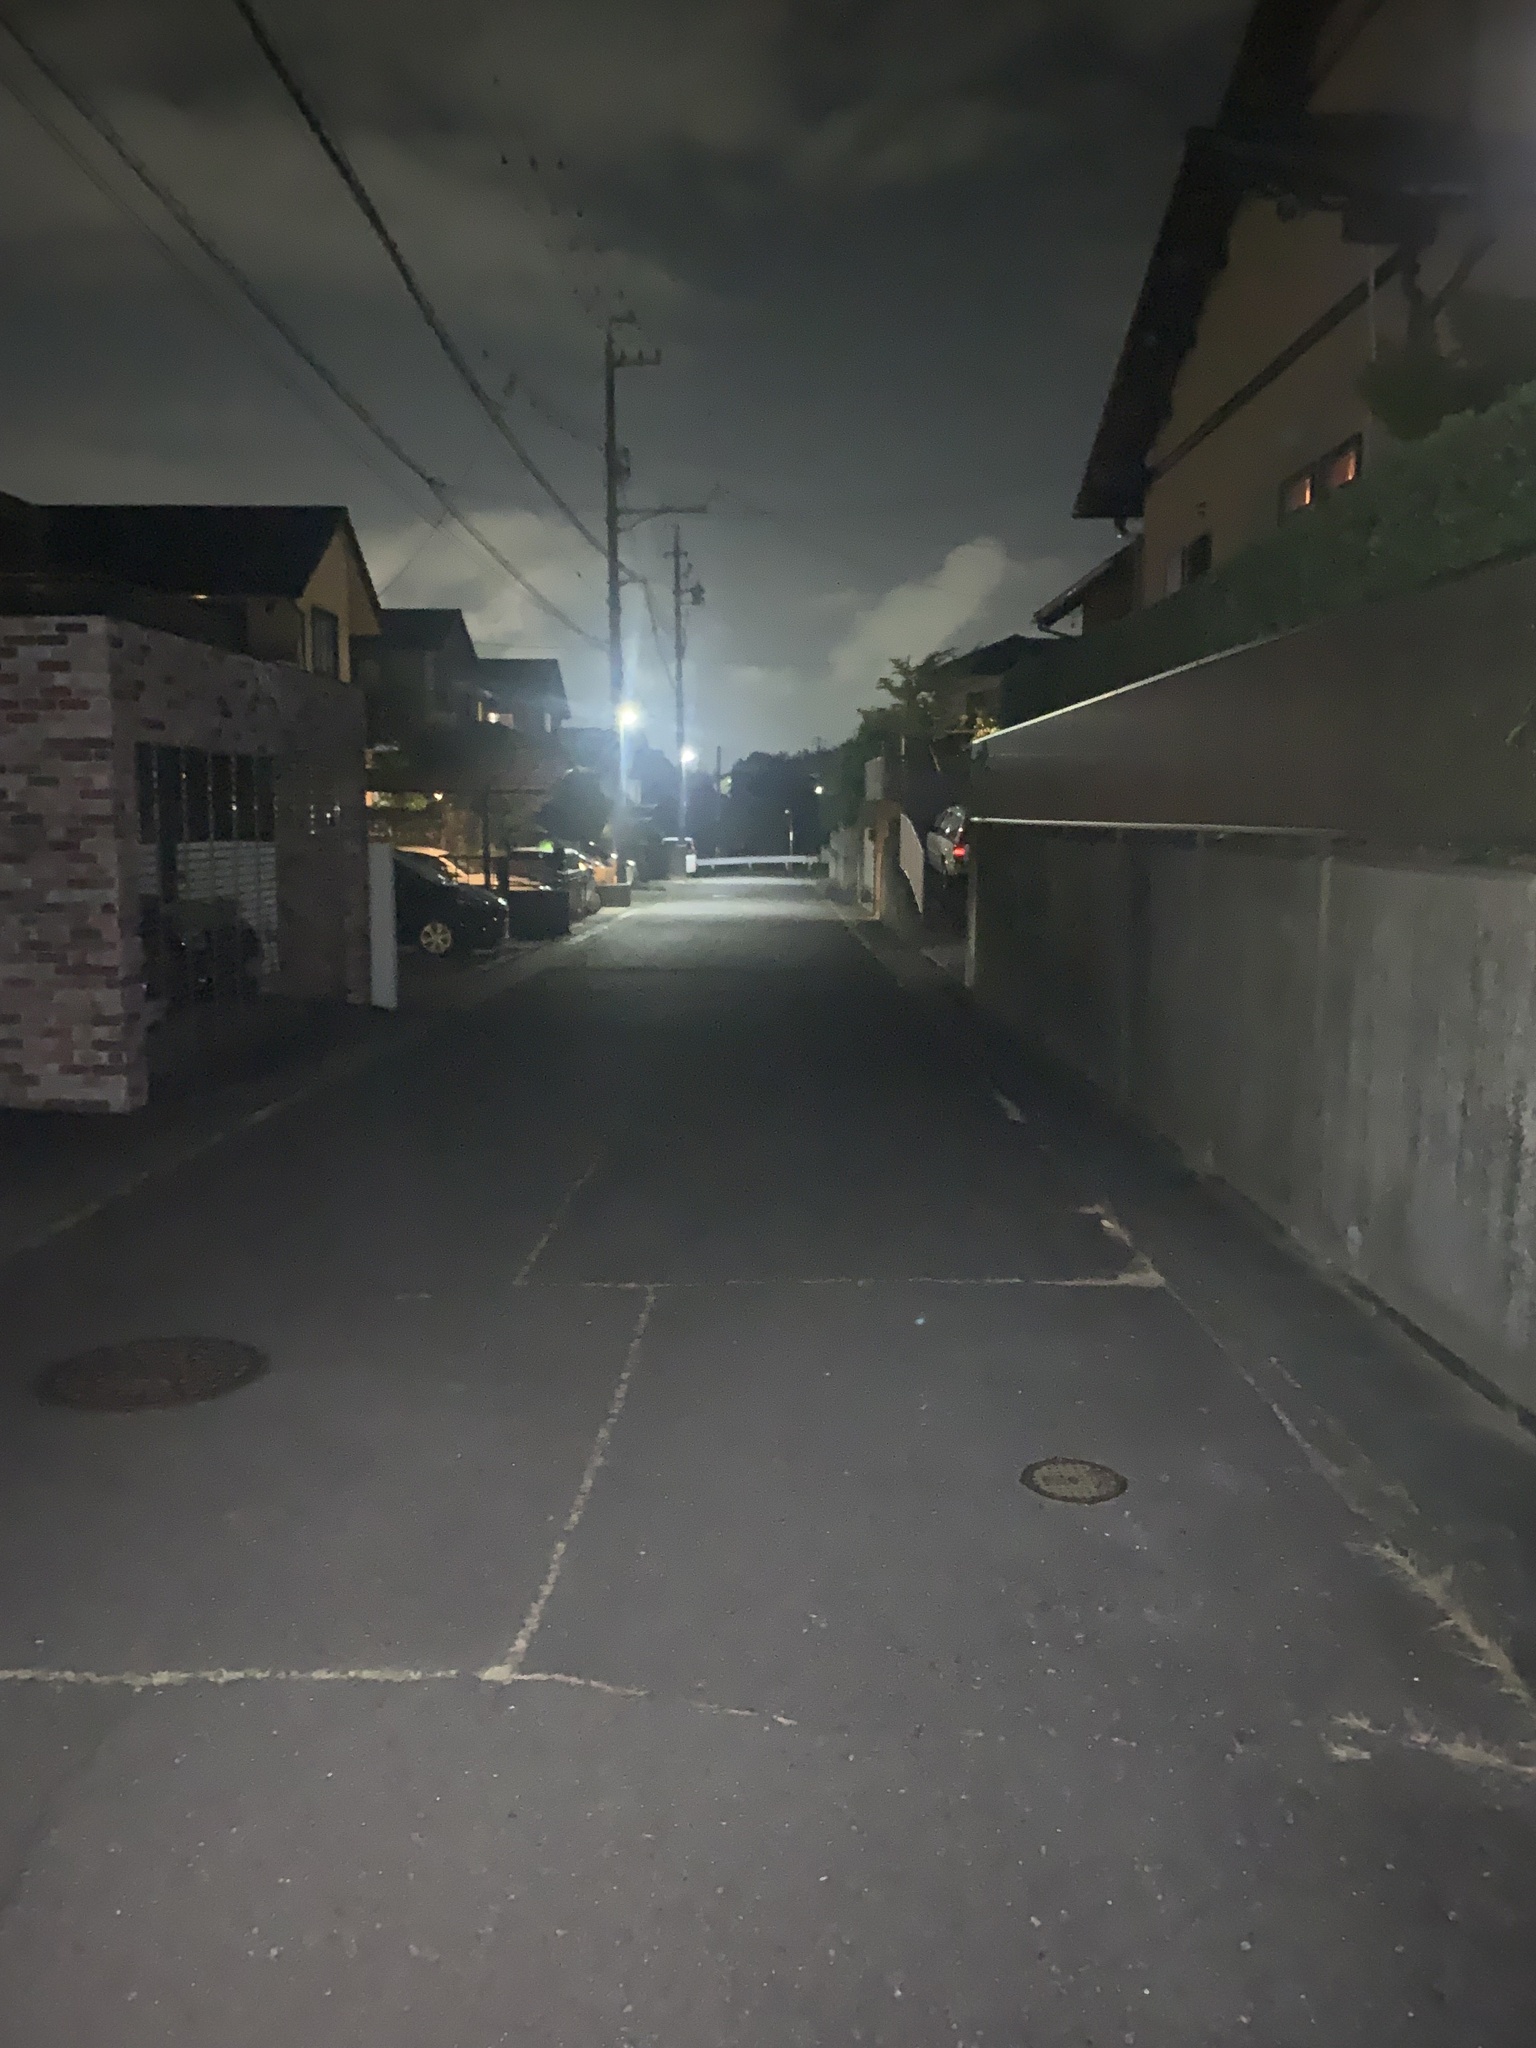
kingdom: Animalia
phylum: Arthropoda
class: Insecta
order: Orthoptera
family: Gryllidae
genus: Truljalia
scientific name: Truljalia hibinonis
